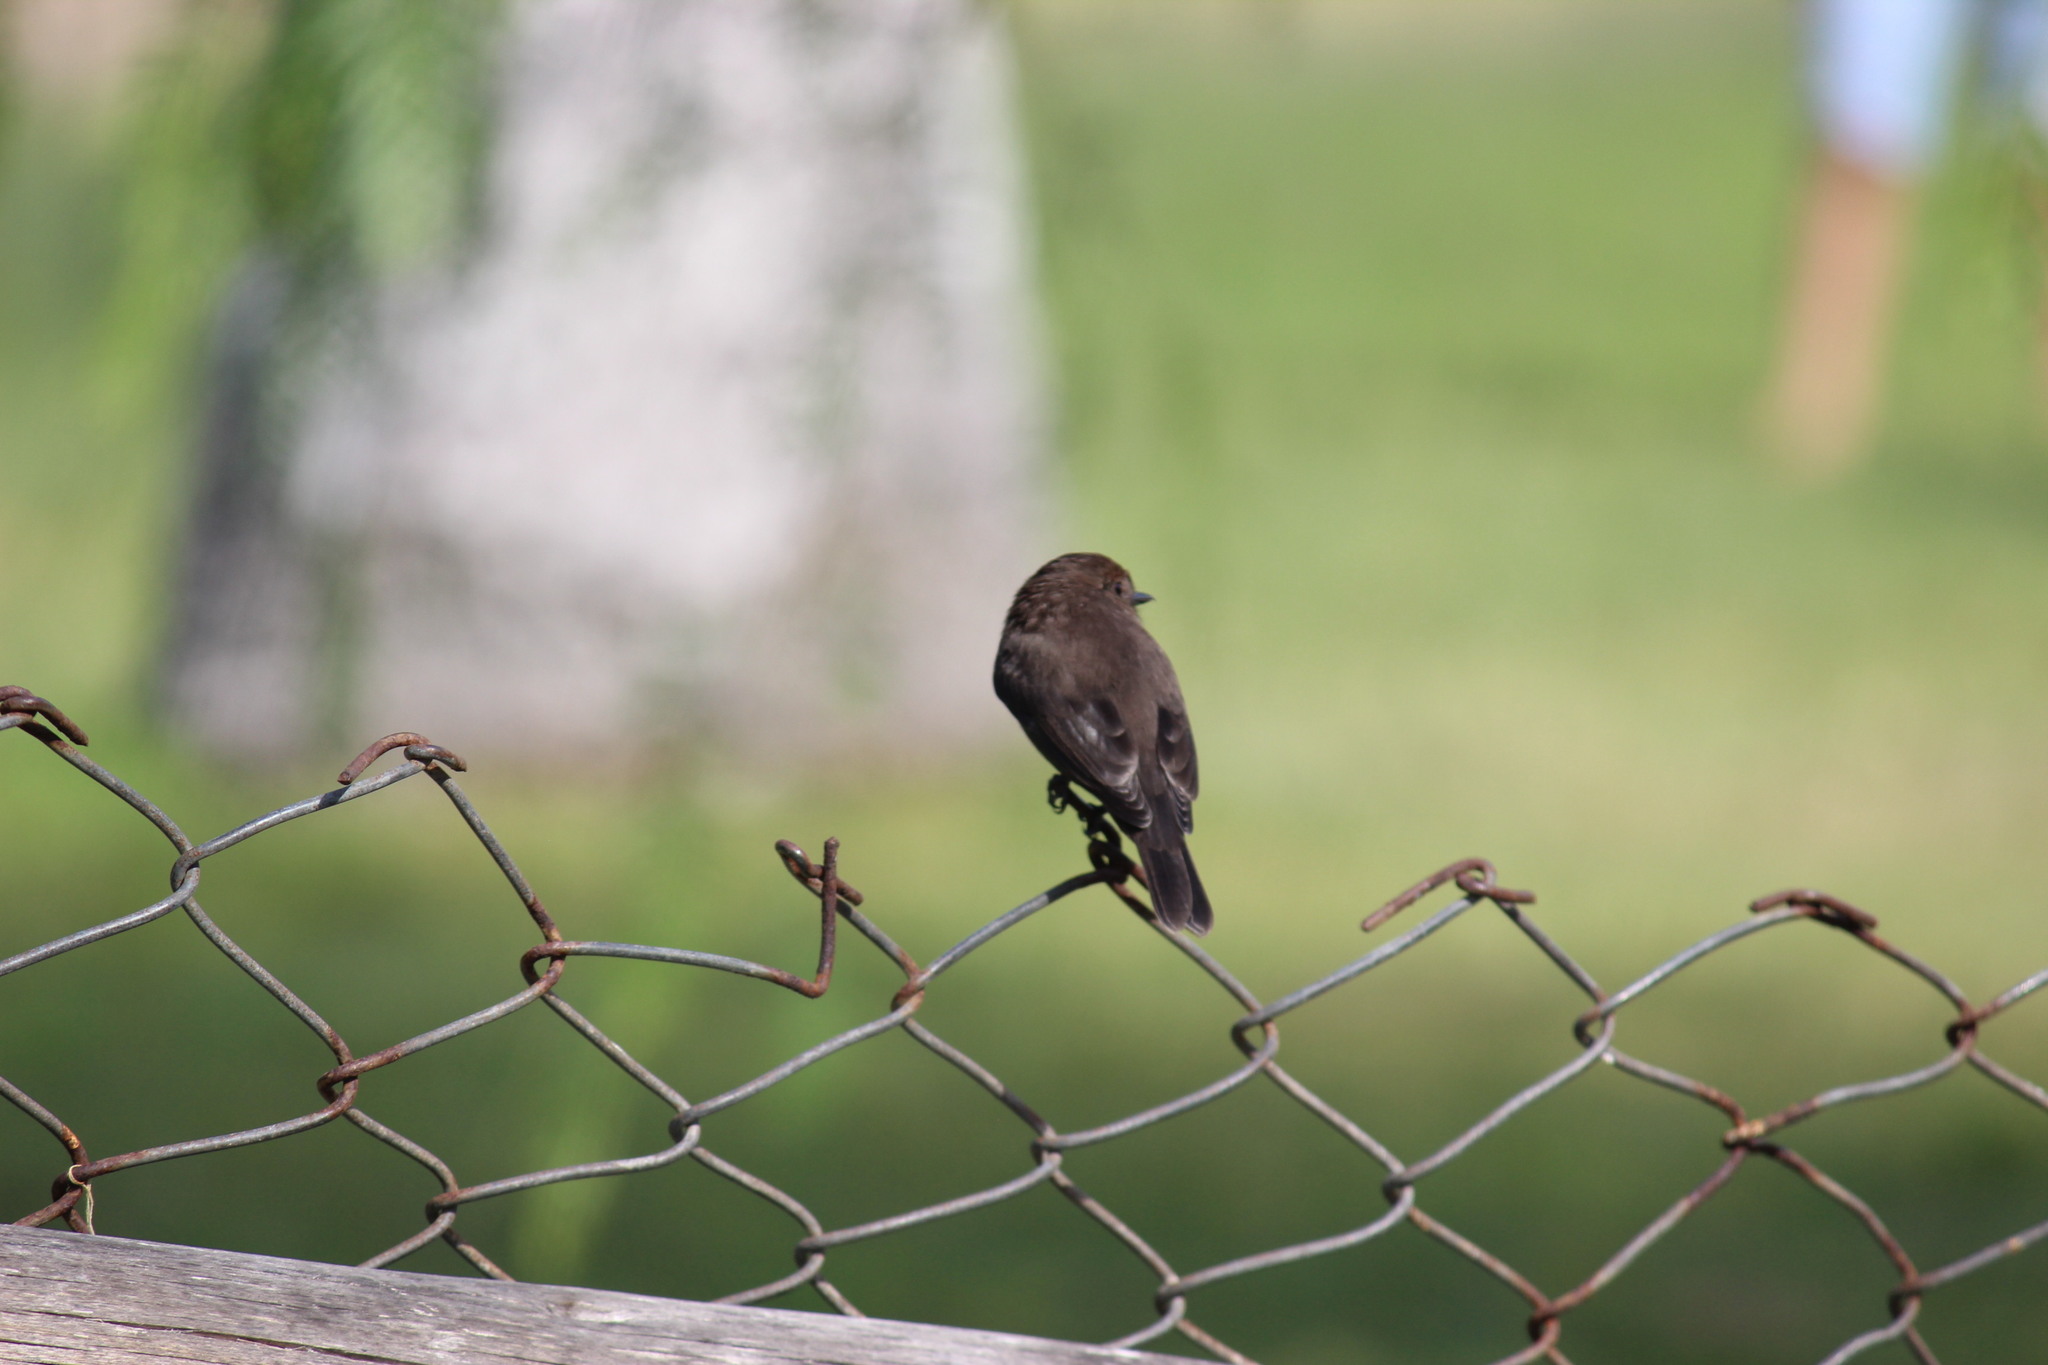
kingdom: Animalia
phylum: Chordata
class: Aves
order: Passeriformes
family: Tyrannidae
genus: Pyrocephalus
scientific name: Pyrocephalus rubinus
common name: Vermilion flycatcher
